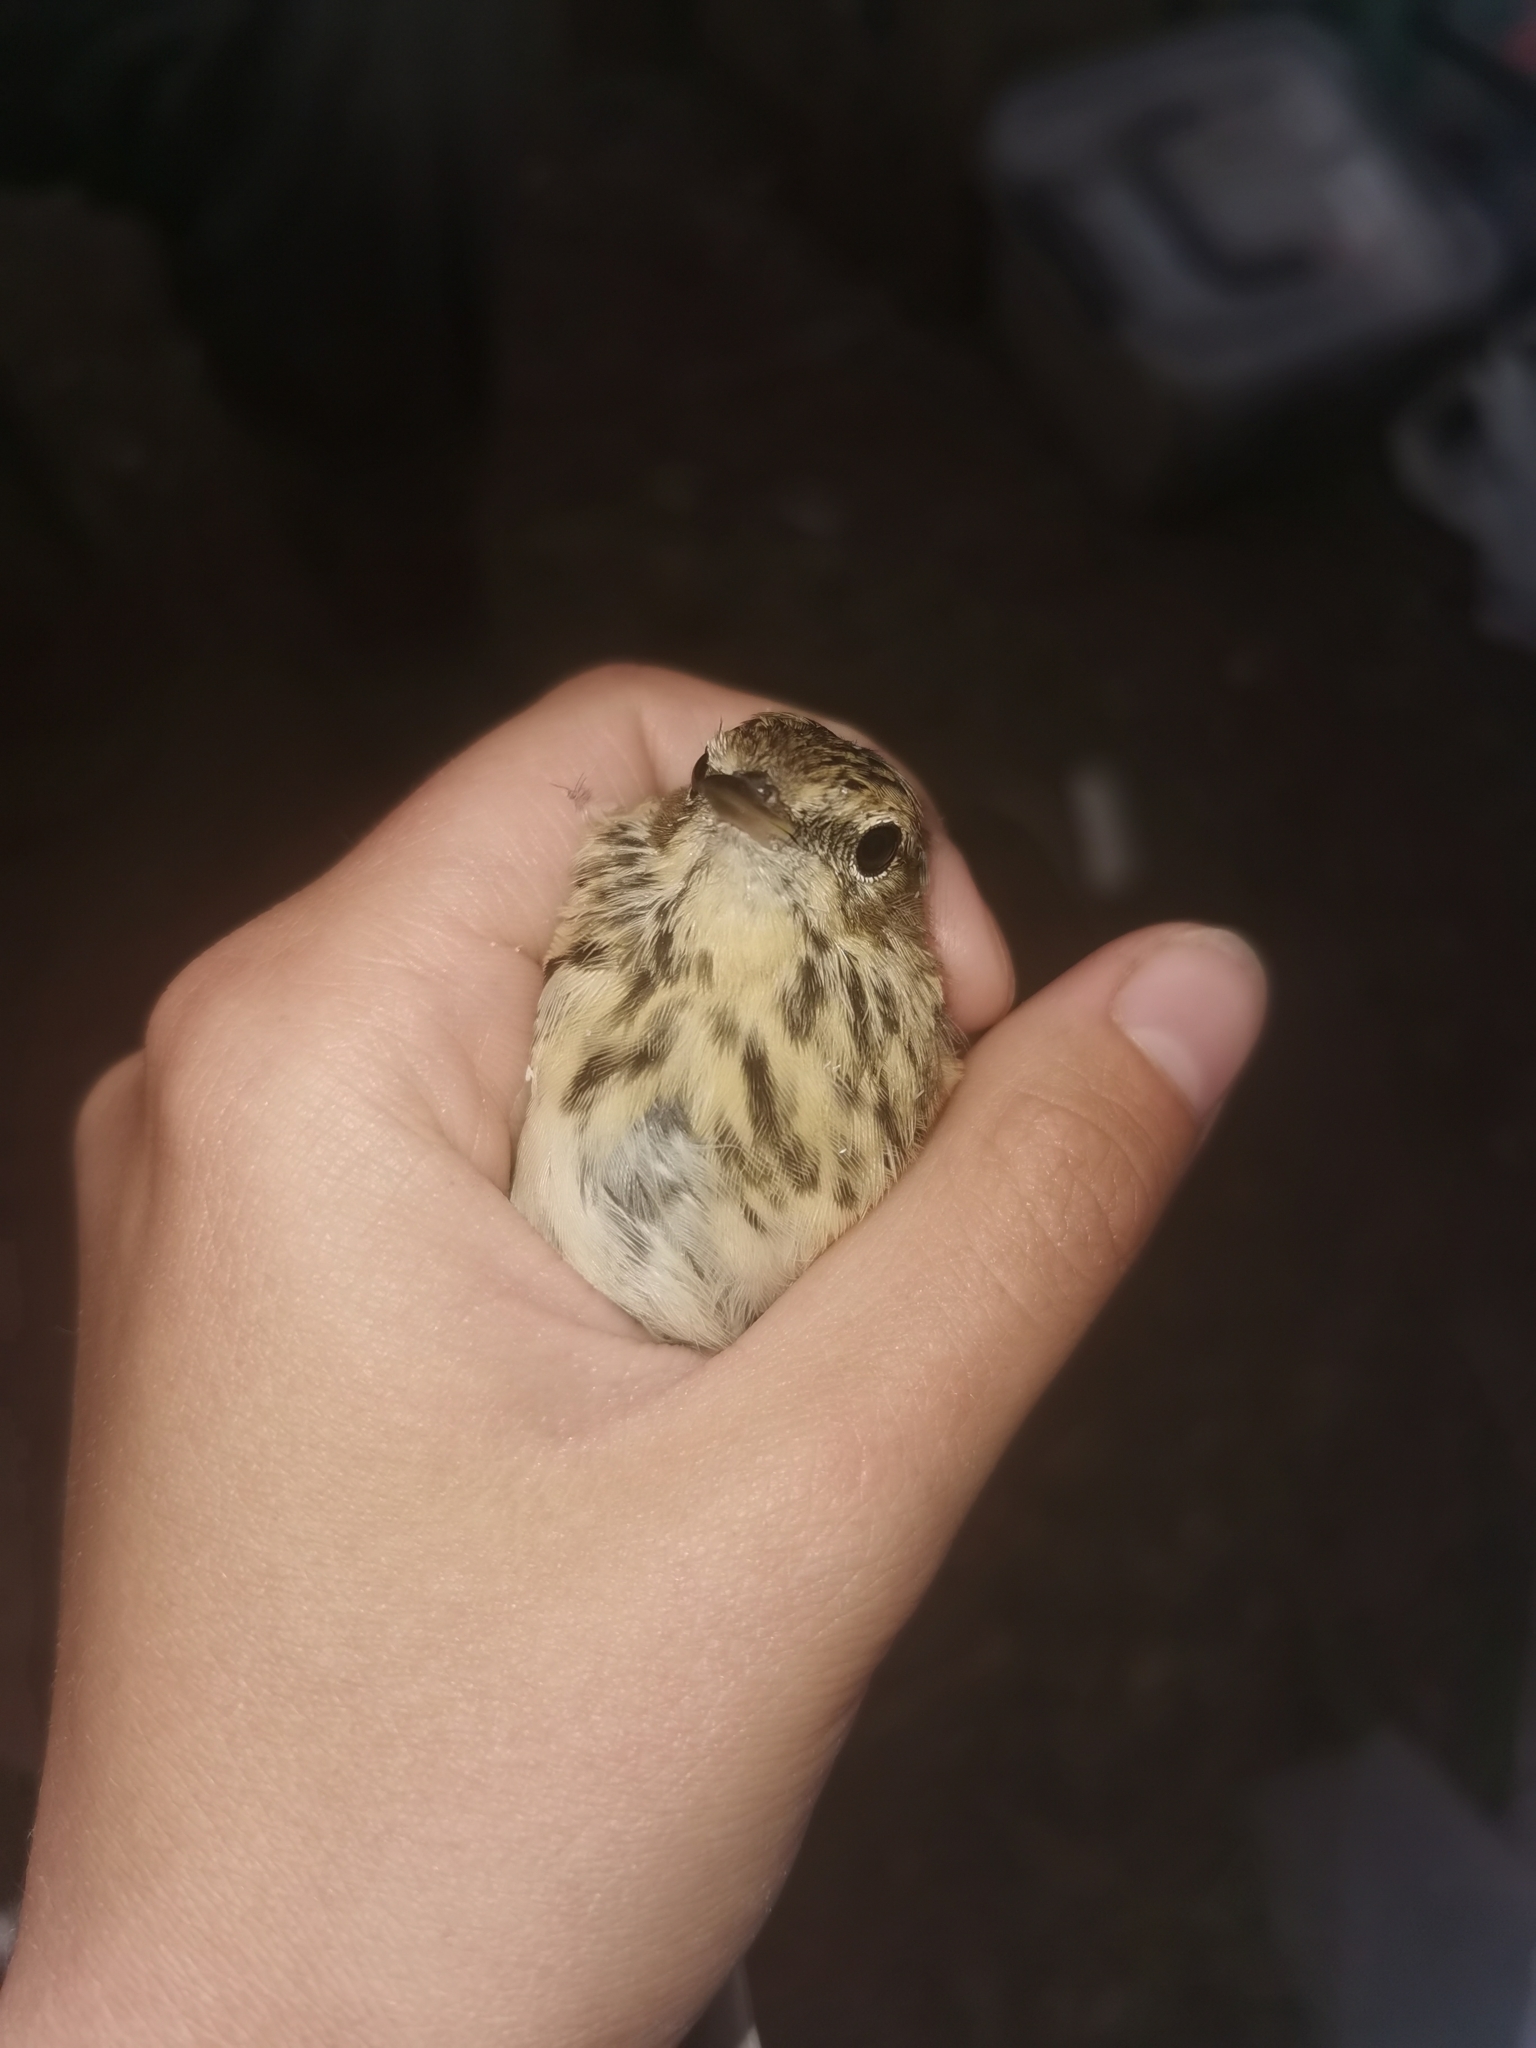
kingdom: Animalia
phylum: Chordata
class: Aves
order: Passeriformes
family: Motacillidae
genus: Anthus
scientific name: Anthus cervinus
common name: Red-throated pipit
